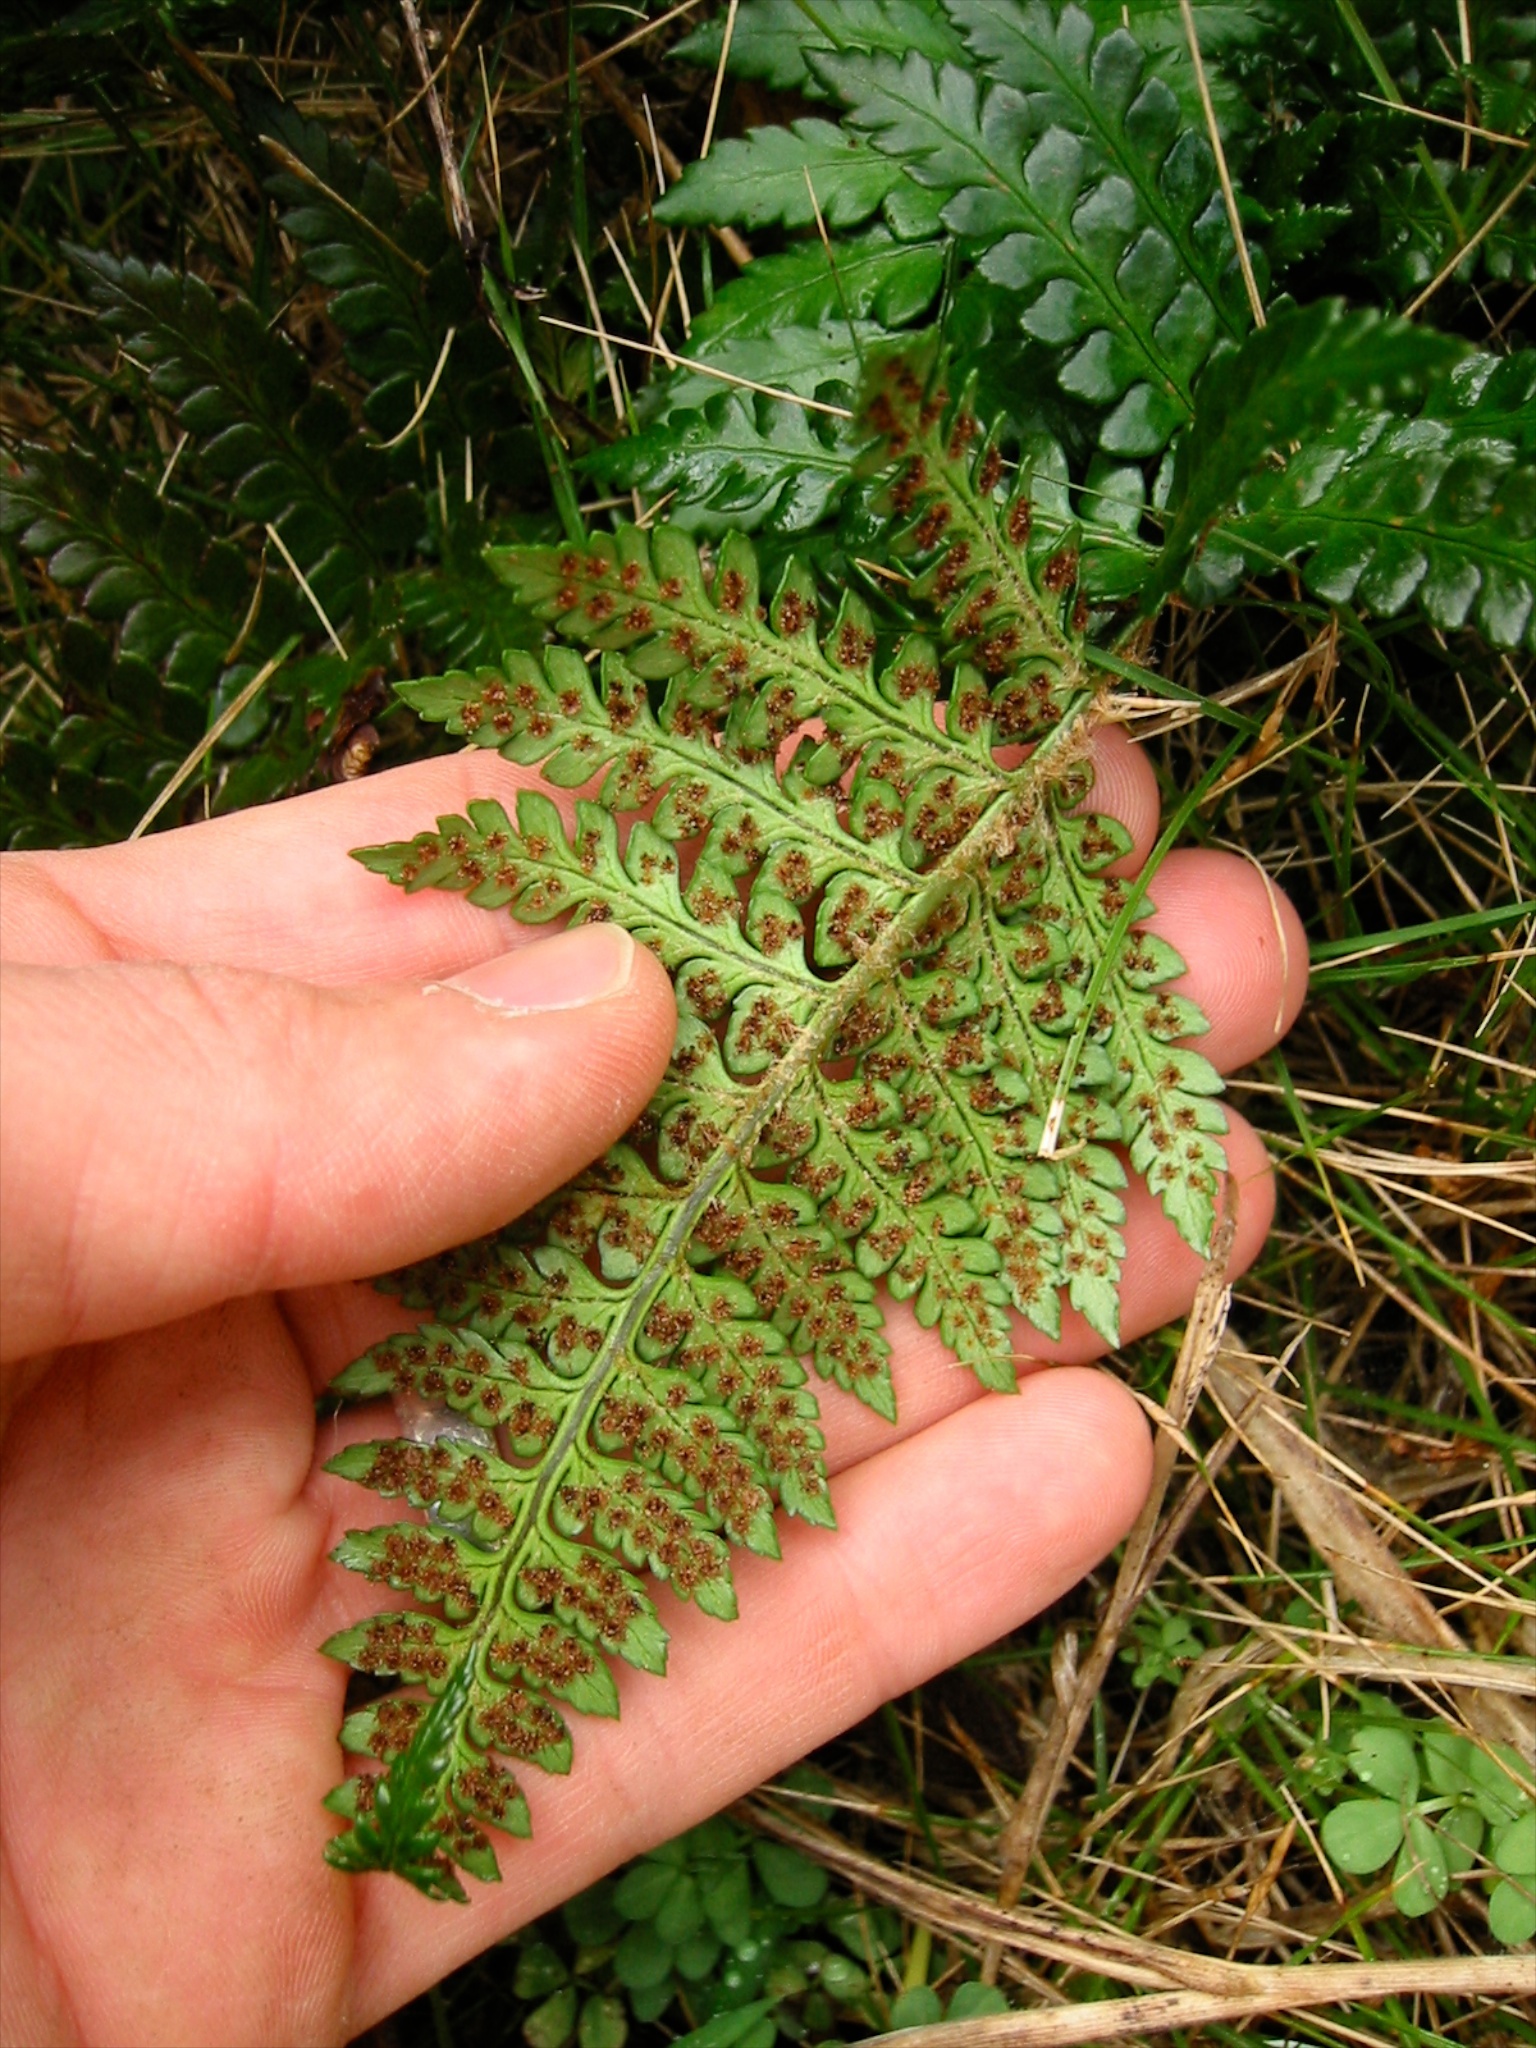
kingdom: Plantae
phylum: Tracheophyta
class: Polypodiopsida
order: Polypodiales
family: Dryopteridaceae
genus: Polystichum
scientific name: Polystichum
